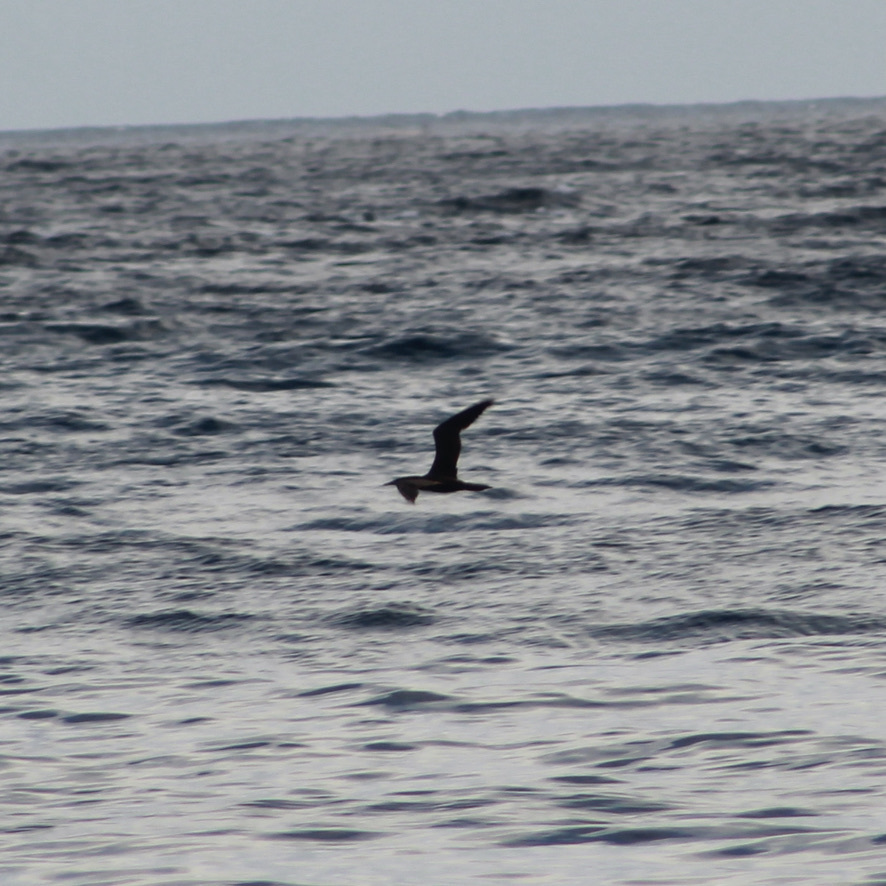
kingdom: Animalia
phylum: Chordata
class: Aves
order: Suliformes
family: Sulidae
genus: Sula
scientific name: Sula leucogaster
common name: Brown booby
